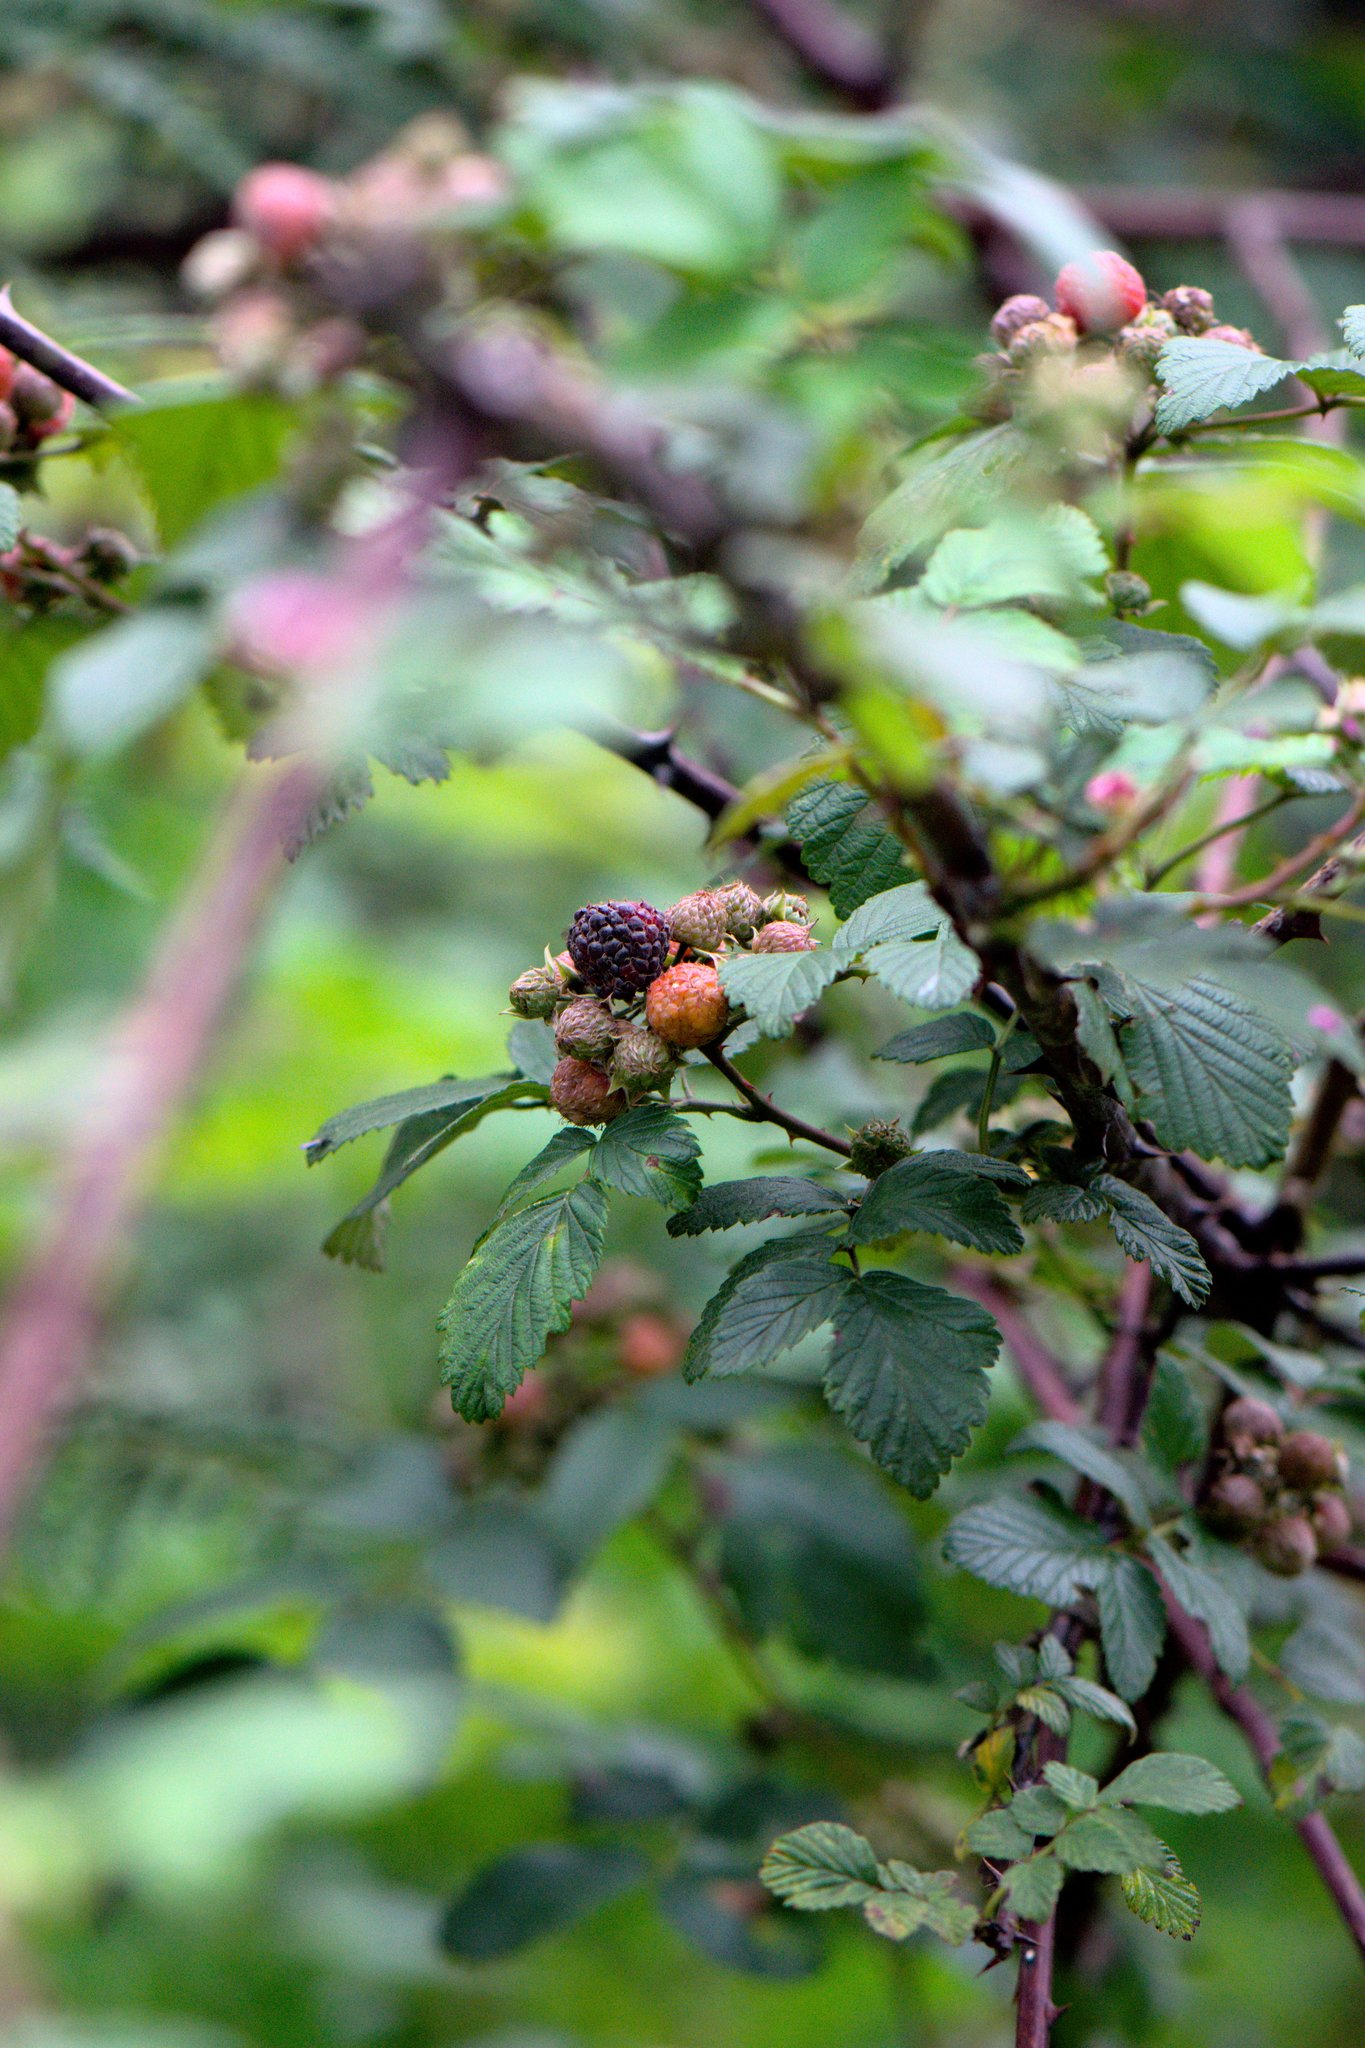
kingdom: Plantae
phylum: Tracheophyta
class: Magnoliopsida
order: Rosales
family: Rosaceae
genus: Rubus
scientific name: Rubus niveus
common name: Snowpeaks raspberry
